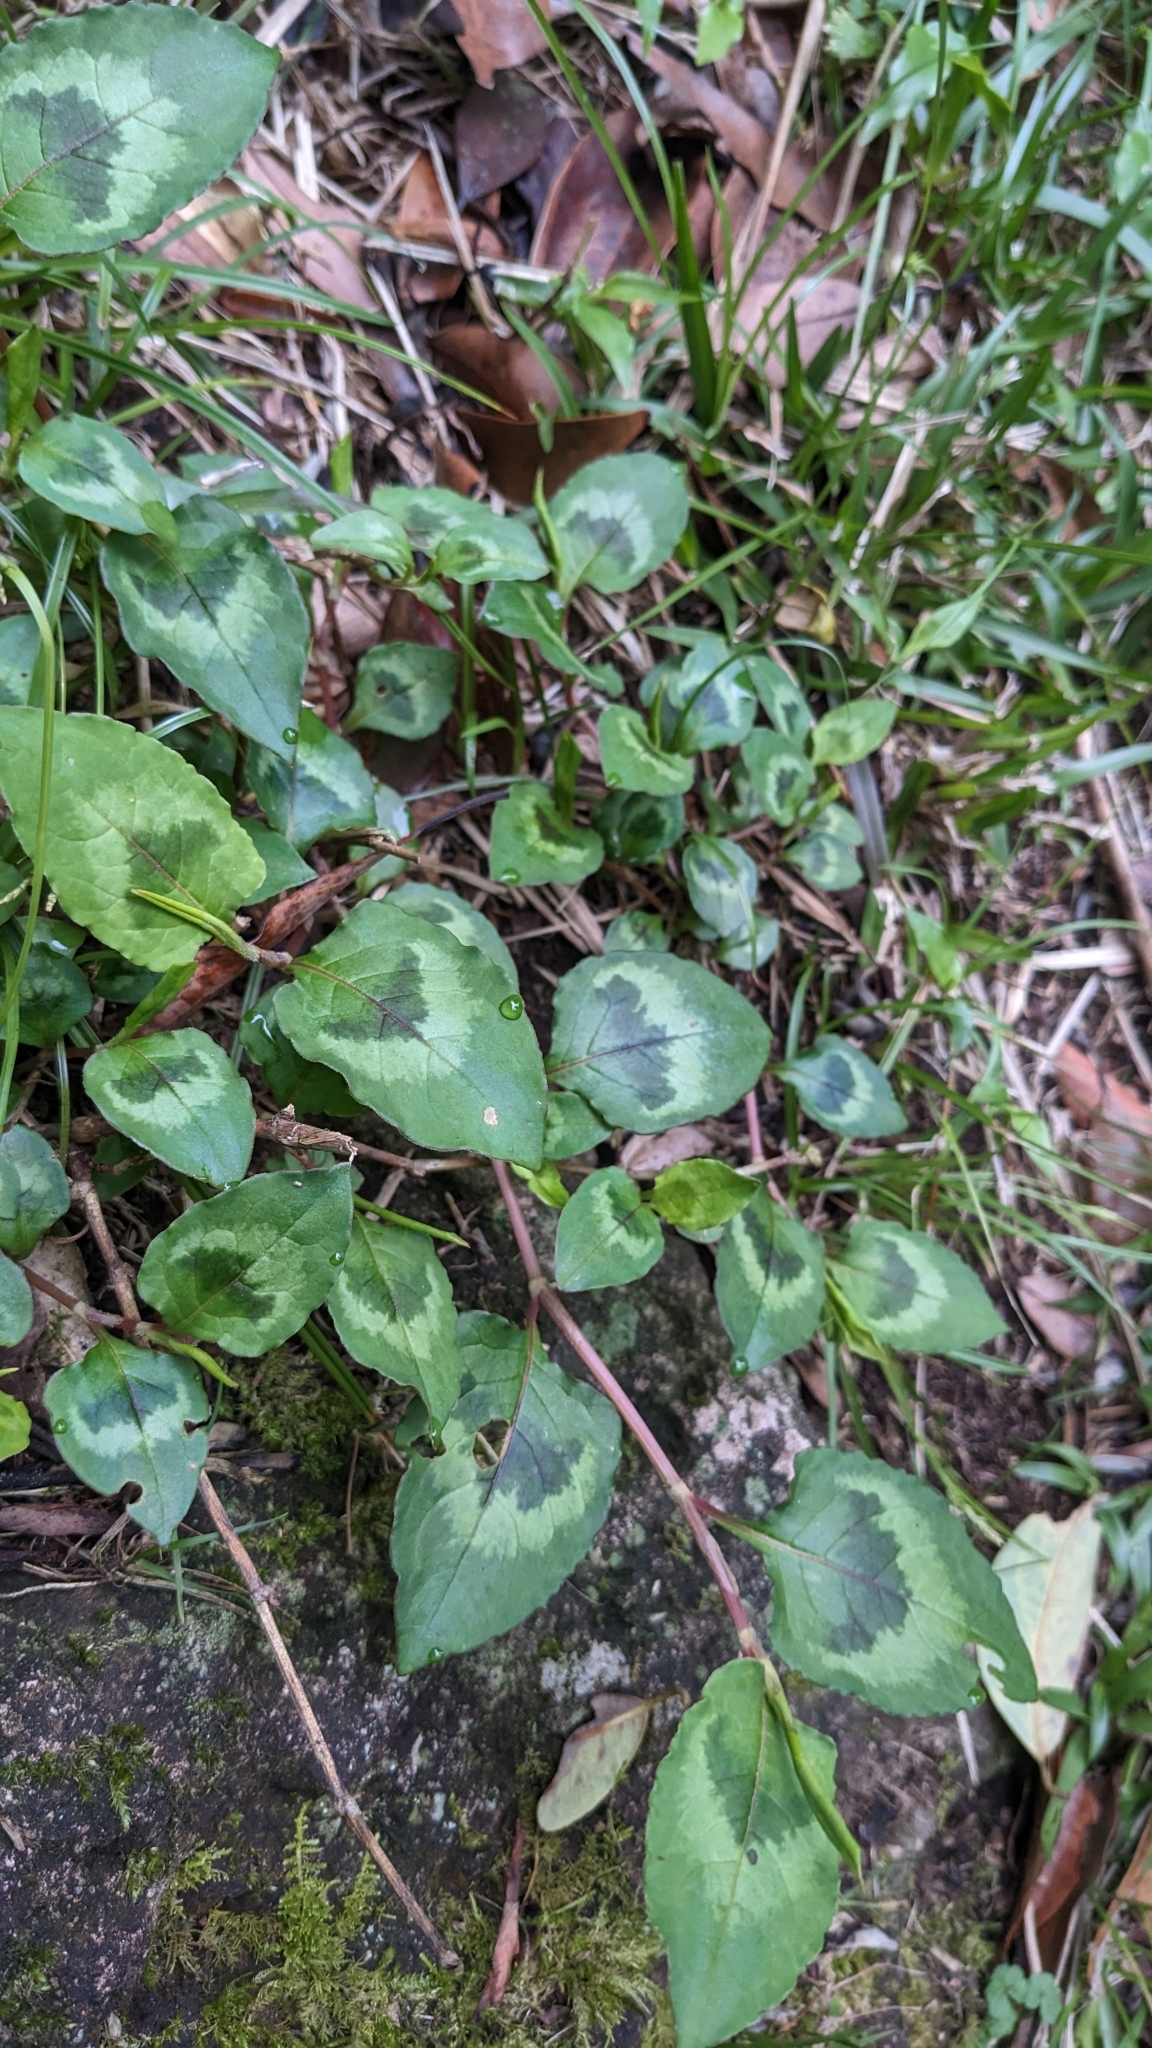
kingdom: Plantae
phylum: Tracheophyta
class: Magnoliopsida
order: Caryophyllales
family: Polygonaceae
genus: Persicaria
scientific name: Persicaria chinensis
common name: Chinese knotweed
